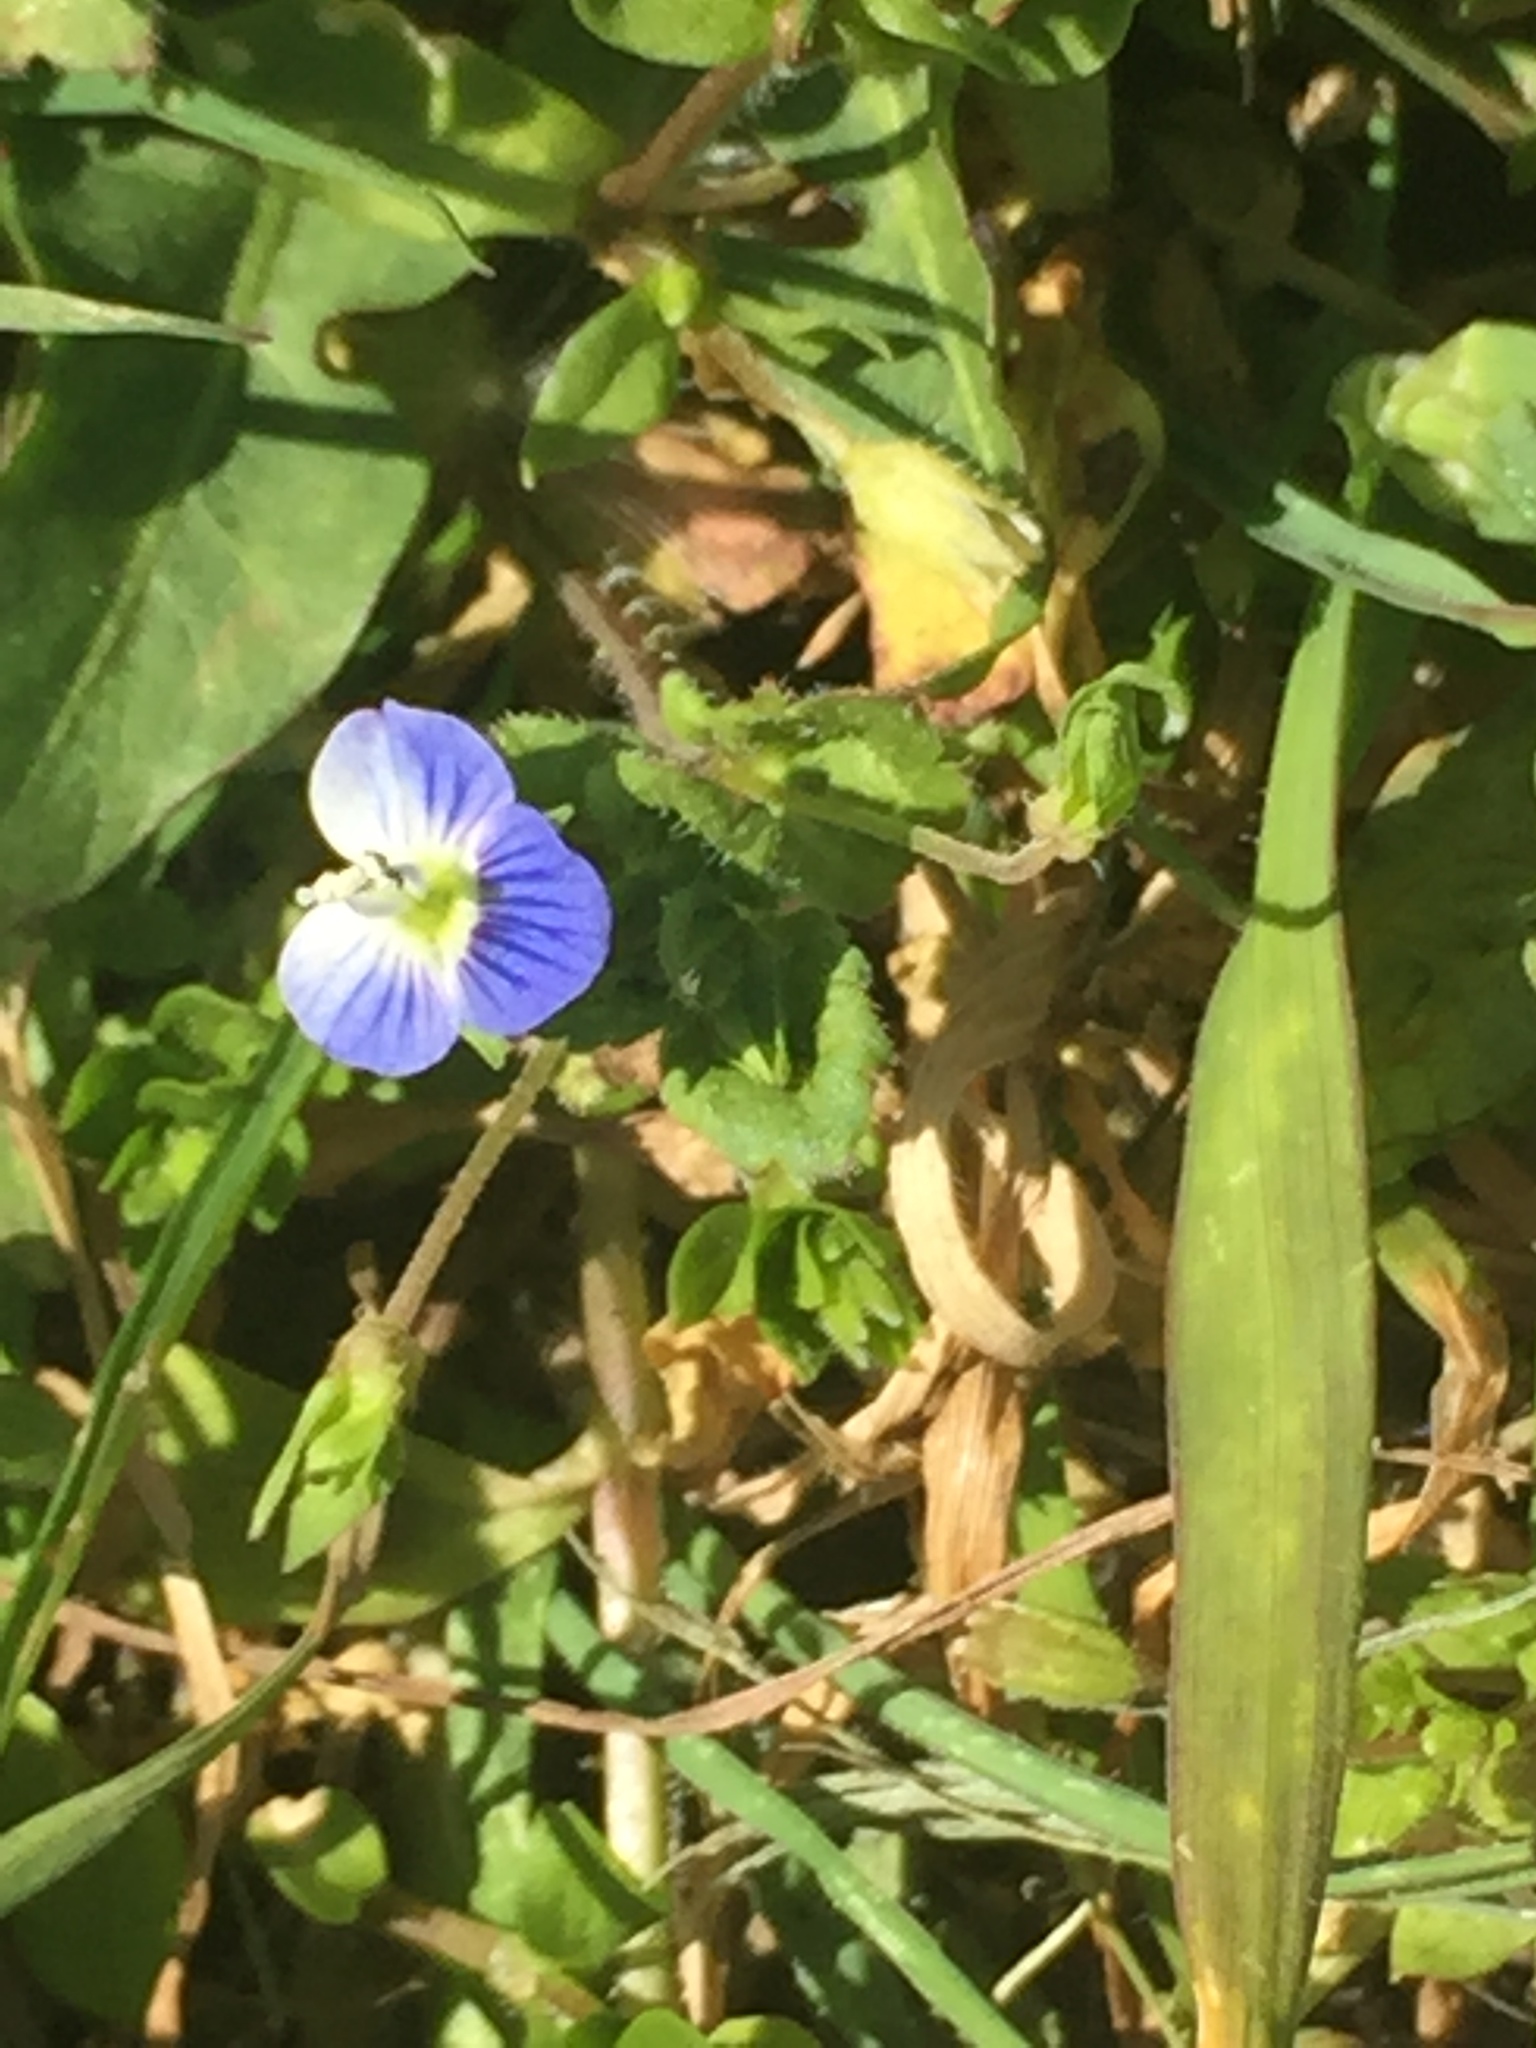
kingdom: Plantae
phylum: Tracheophyta
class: Magnoliopsida
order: Lamiales
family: Plantaginaceae
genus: Veronica
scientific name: Veronica persica
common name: Common field-speedwell
